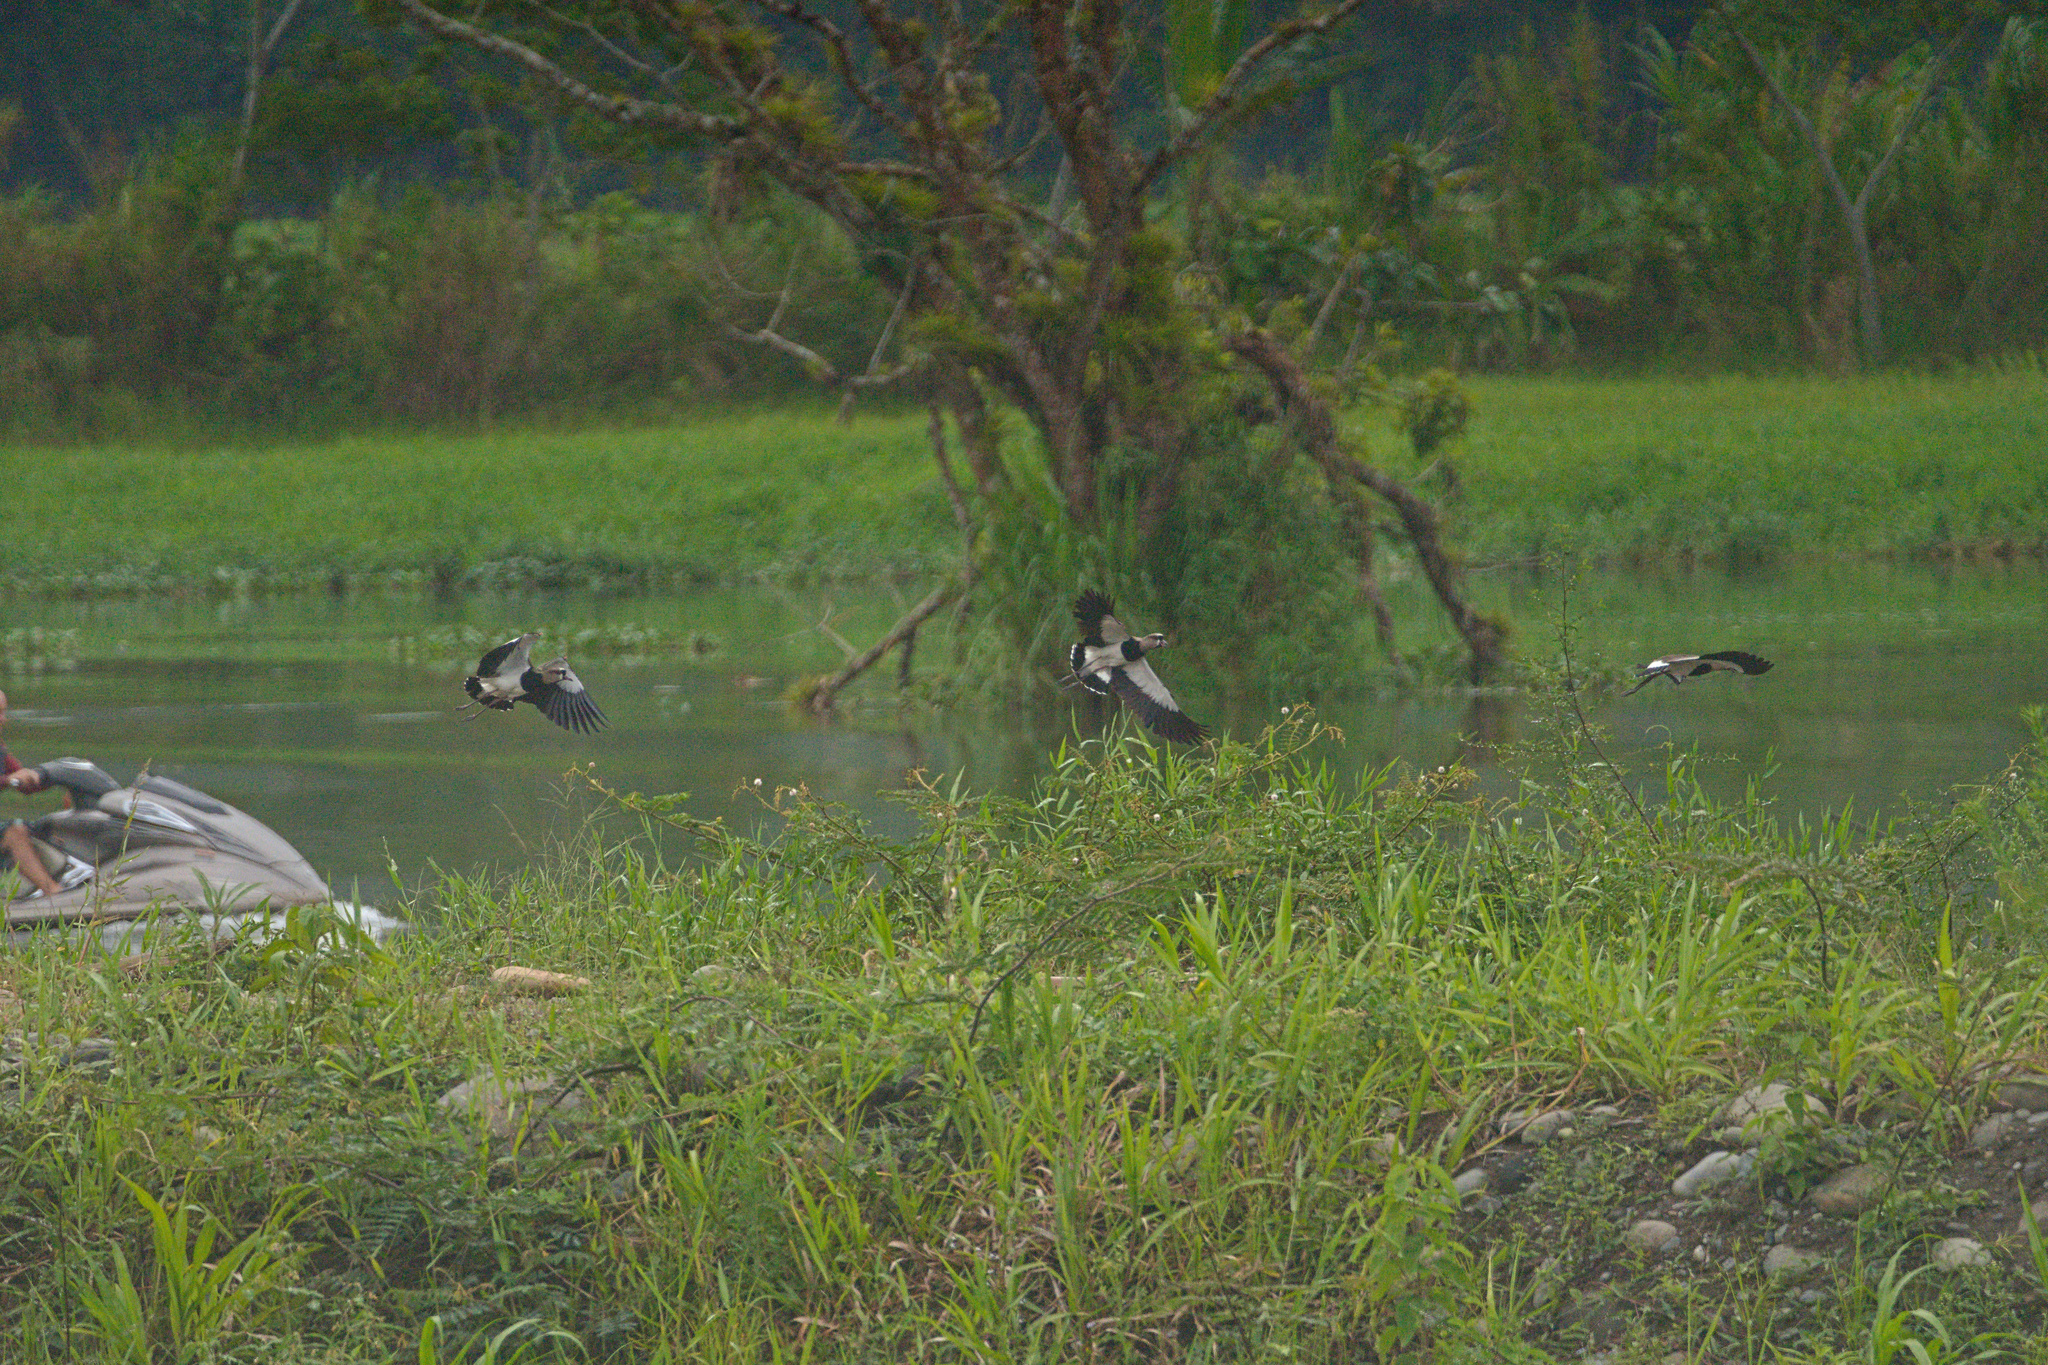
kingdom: Animalia
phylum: Chordata
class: Aves
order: Charadriiformes
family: Charadriidae
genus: Vanellus
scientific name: Vanellus chilensis
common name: Southern lapwing
